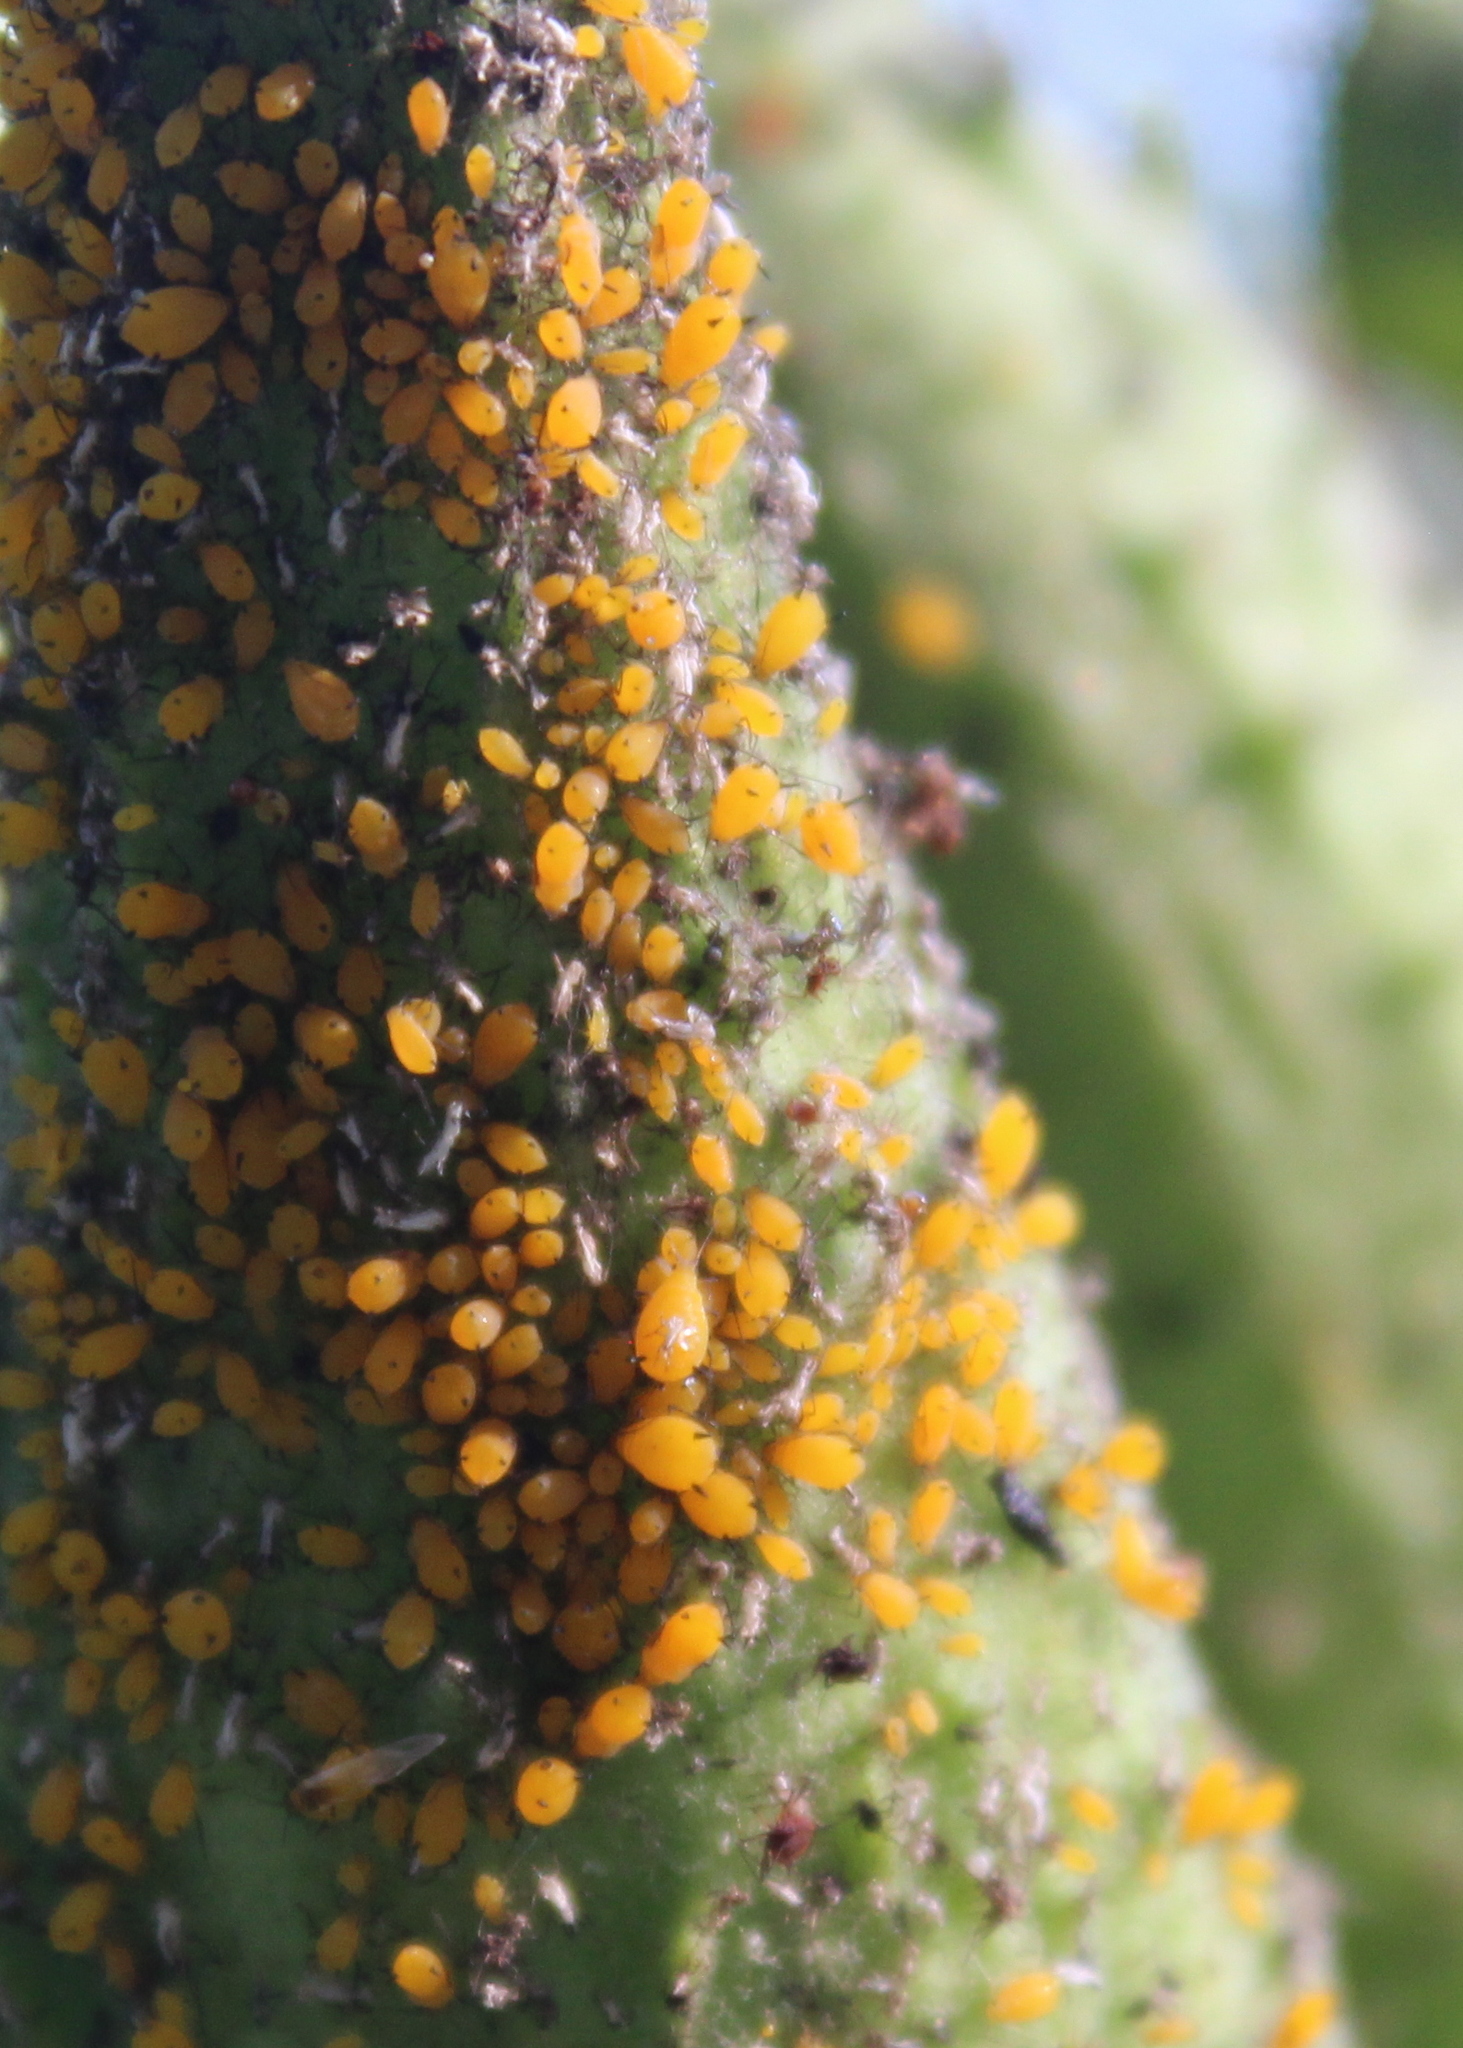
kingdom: Animalia
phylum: Arthropoda
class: Insecta
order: Hemiptera
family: Aphididae
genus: Aphis
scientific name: Aphis nerii
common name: Oleander aphid
